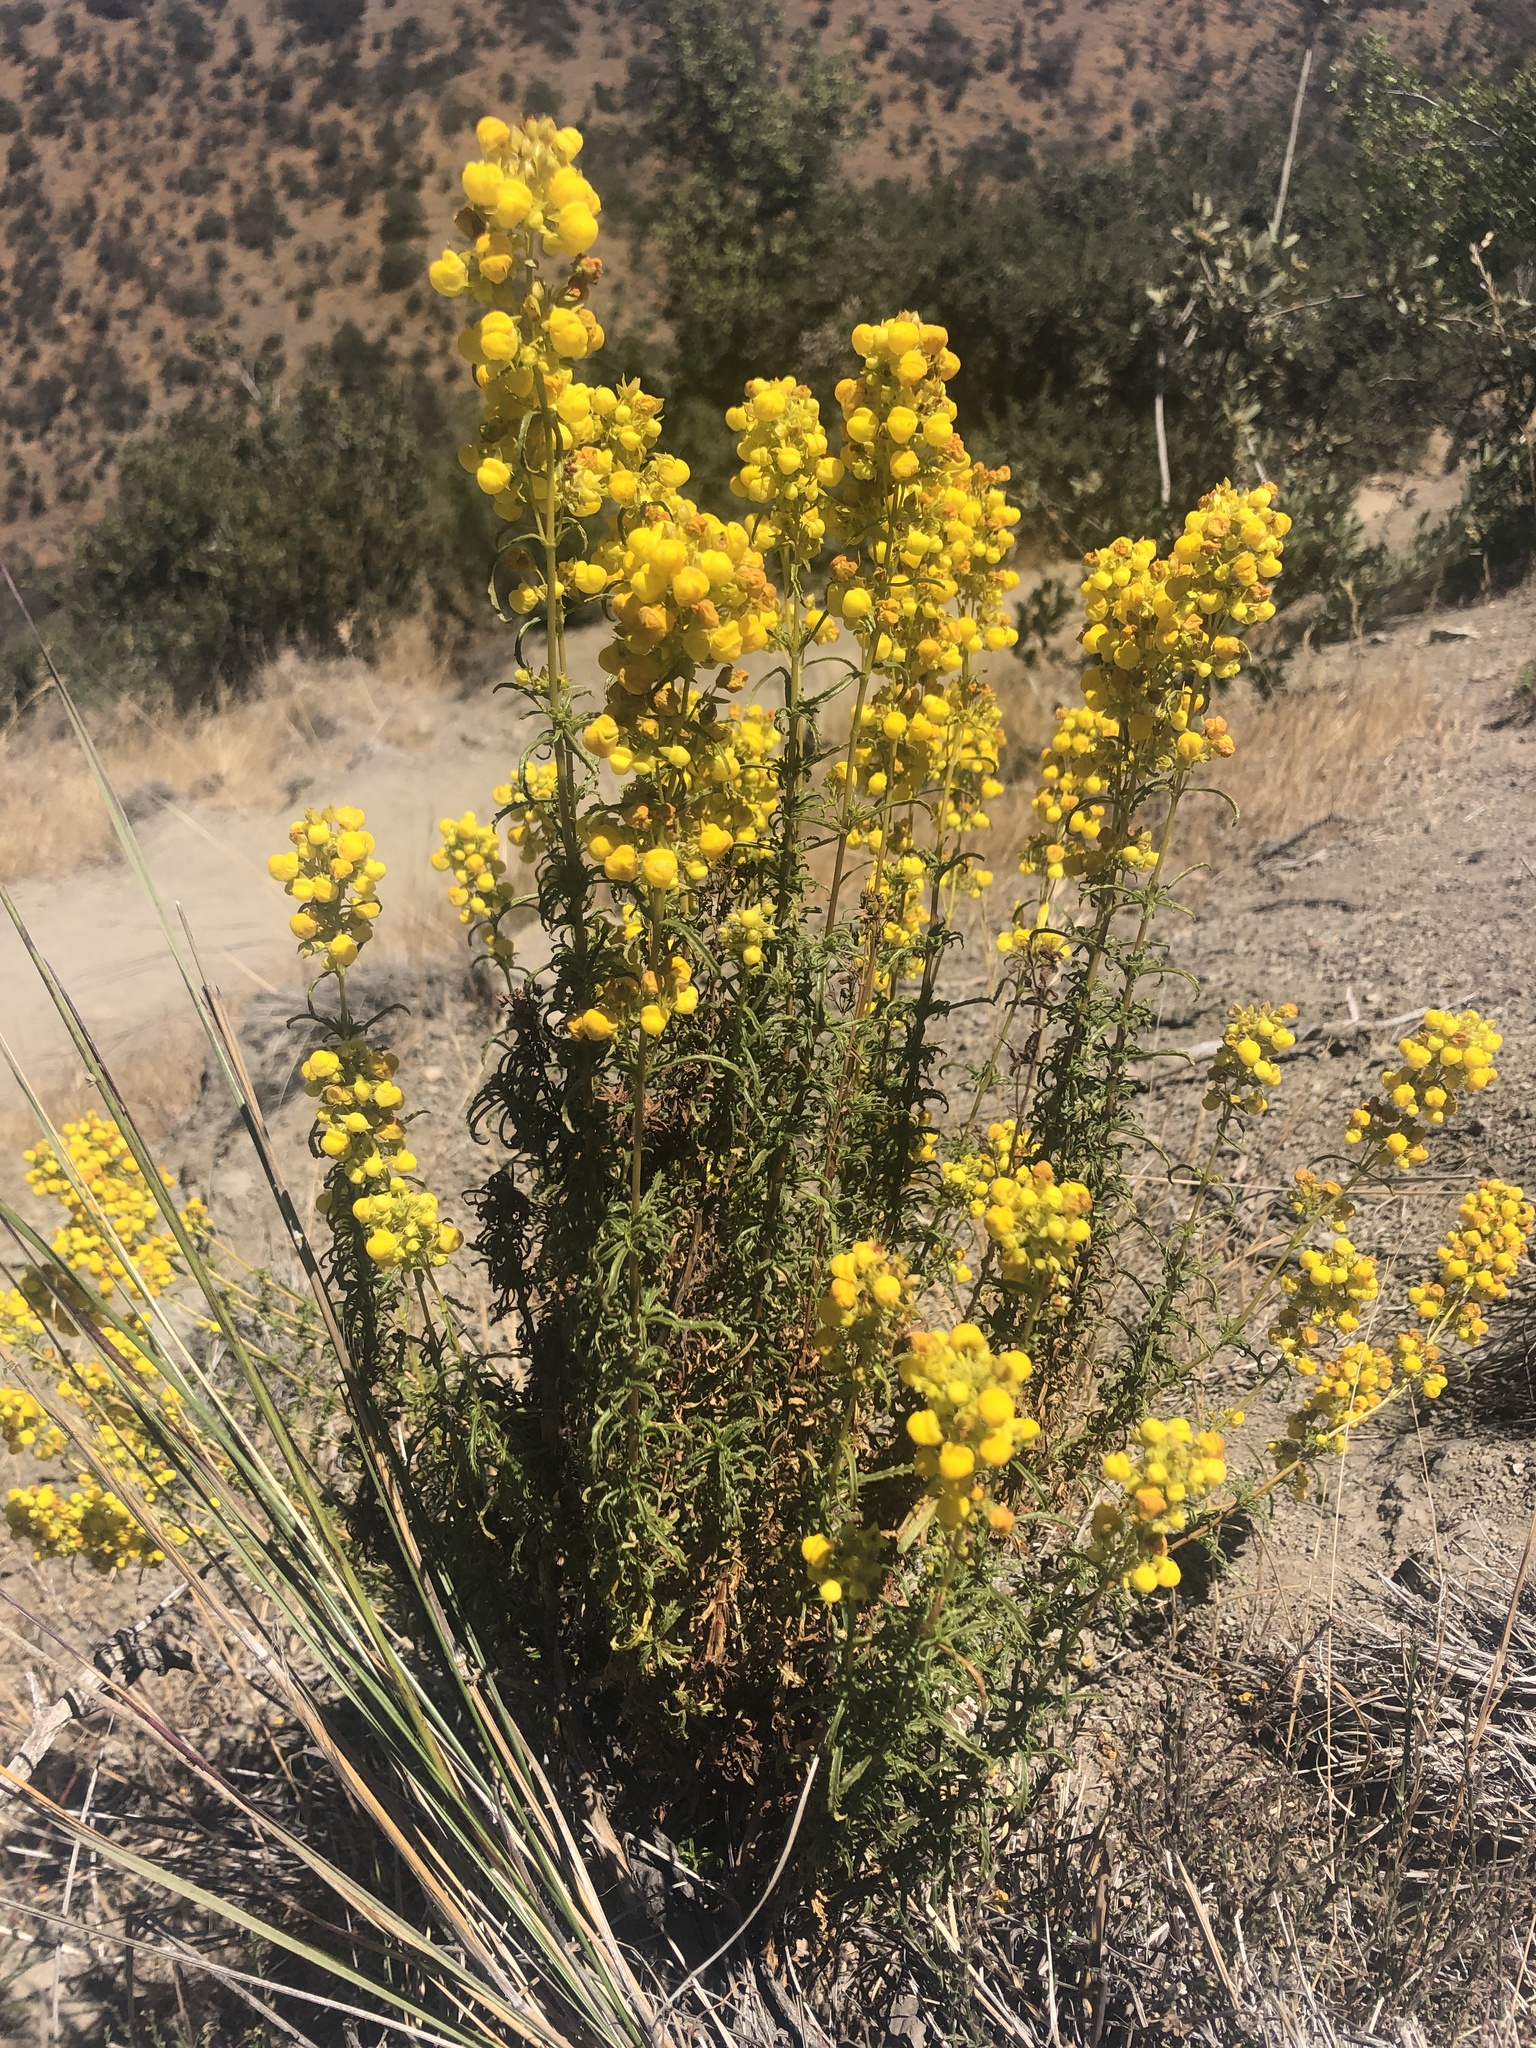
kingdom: Plantae
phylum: Tracheophyta
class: Magnoliopsida
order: Lamiales
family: Calceolariaceae
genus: Calceolaria
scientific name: Calceolaria thyrsiflora
